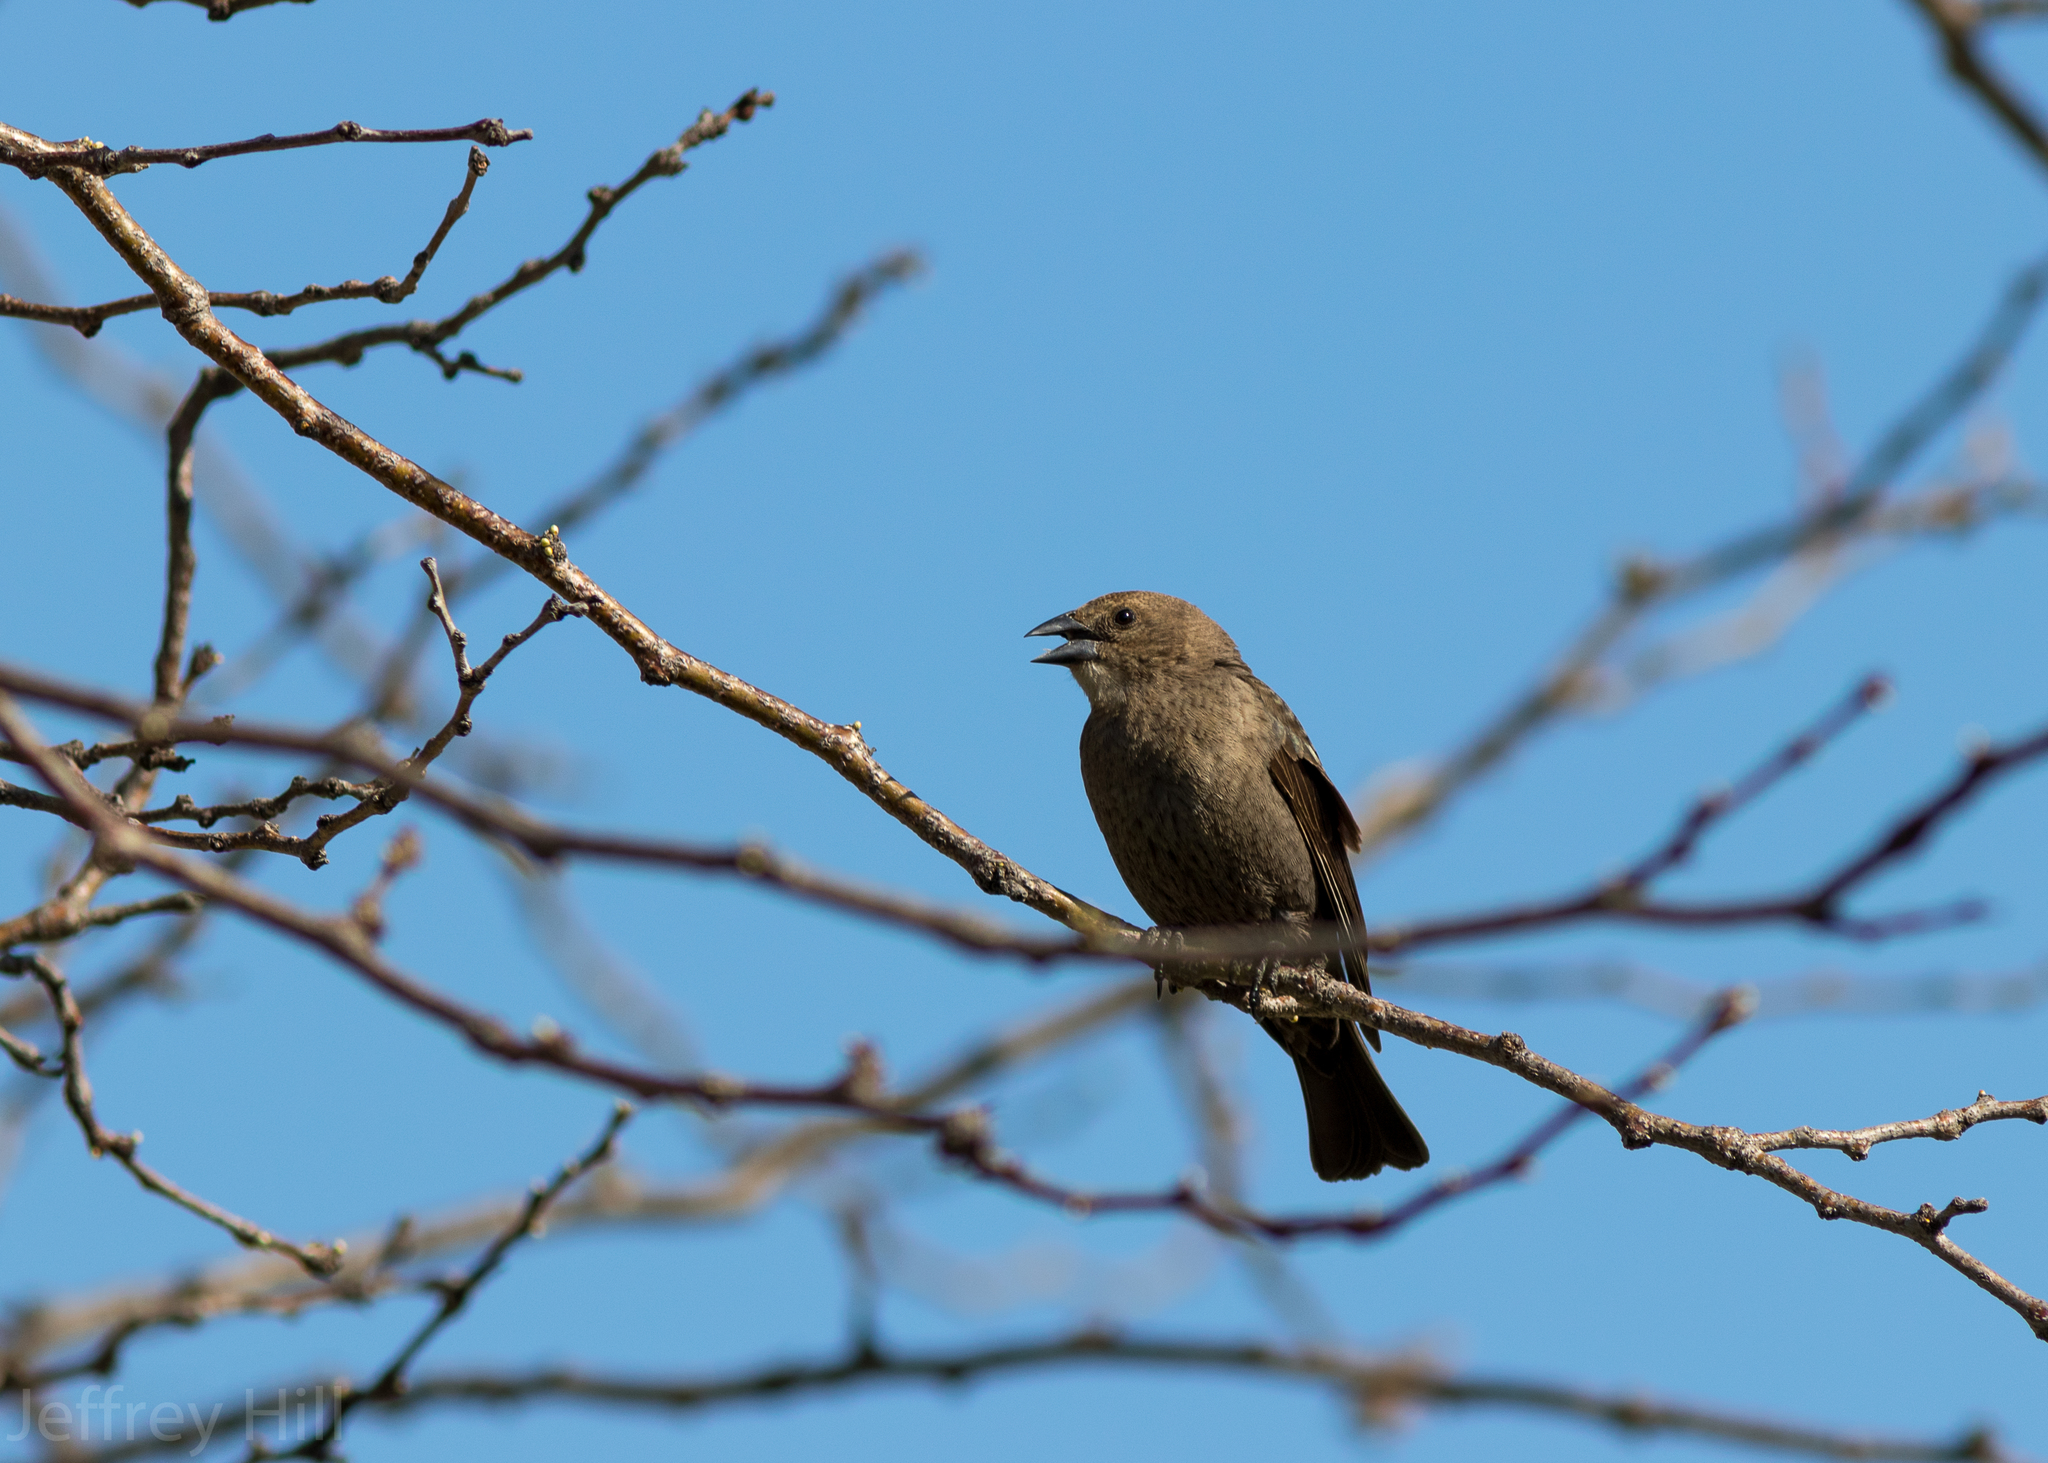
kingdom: Animalia
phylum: Chordata
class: Aves
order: Passeriformes
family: Icteridae
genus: Molothrus
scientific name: Molothrus ater
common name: Brown-headed cowbird
